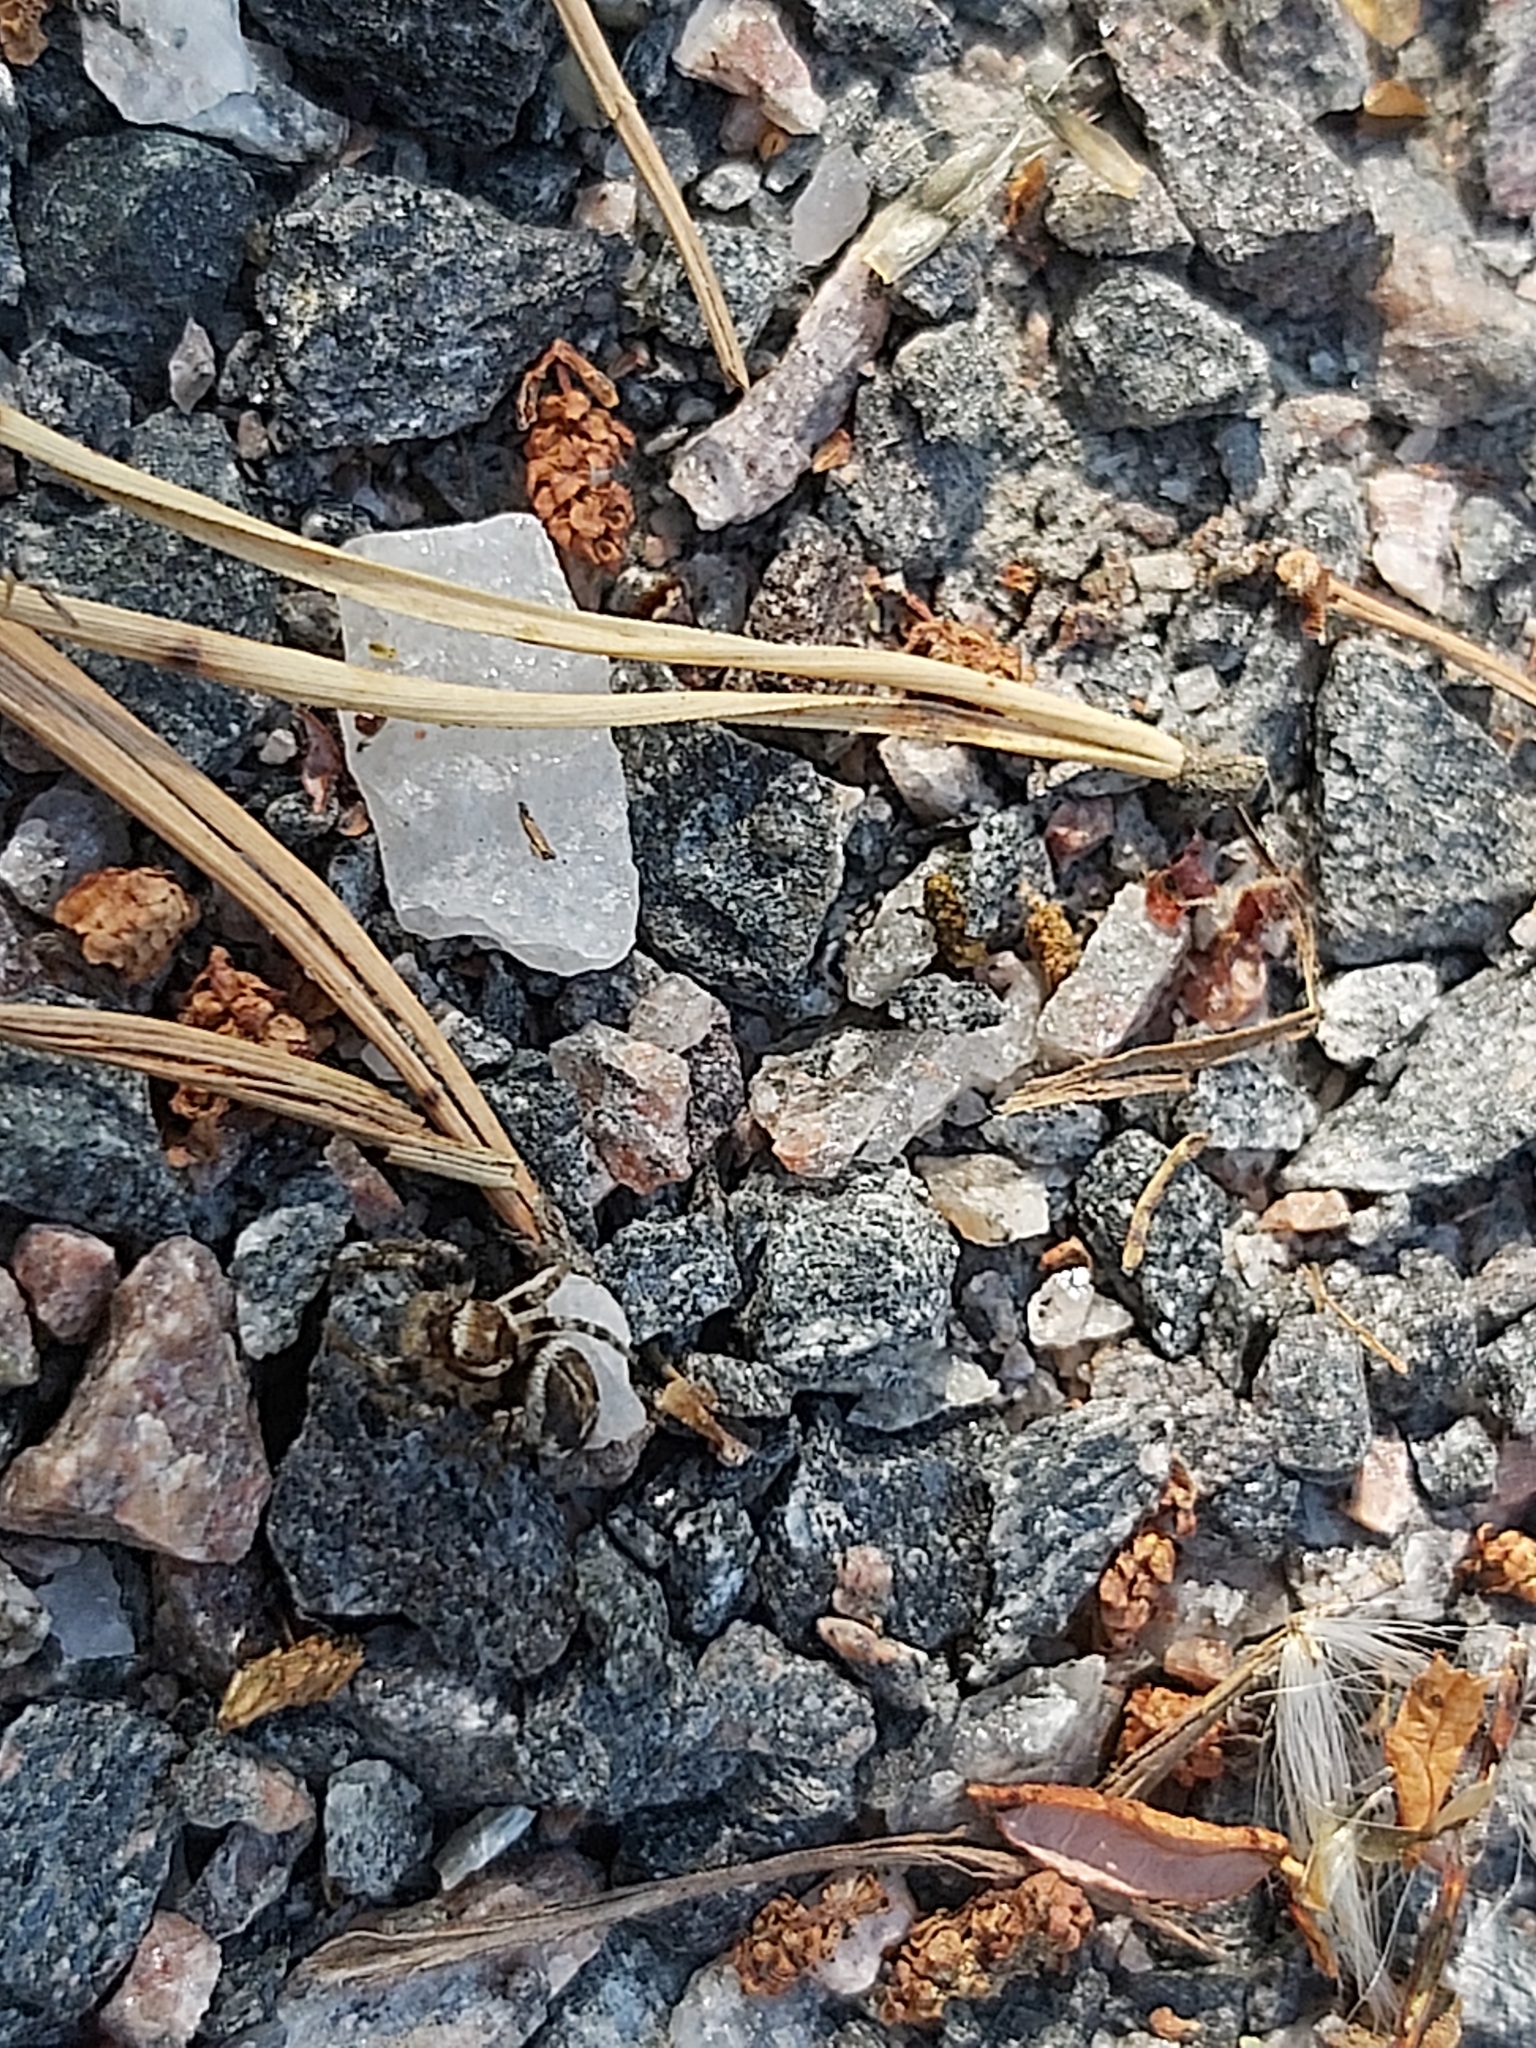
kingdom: Animalia
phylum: Arthropoda
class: Arachnida
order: Araneae
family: Salticidae
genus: Evarcha
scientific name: Evarcha falcata
